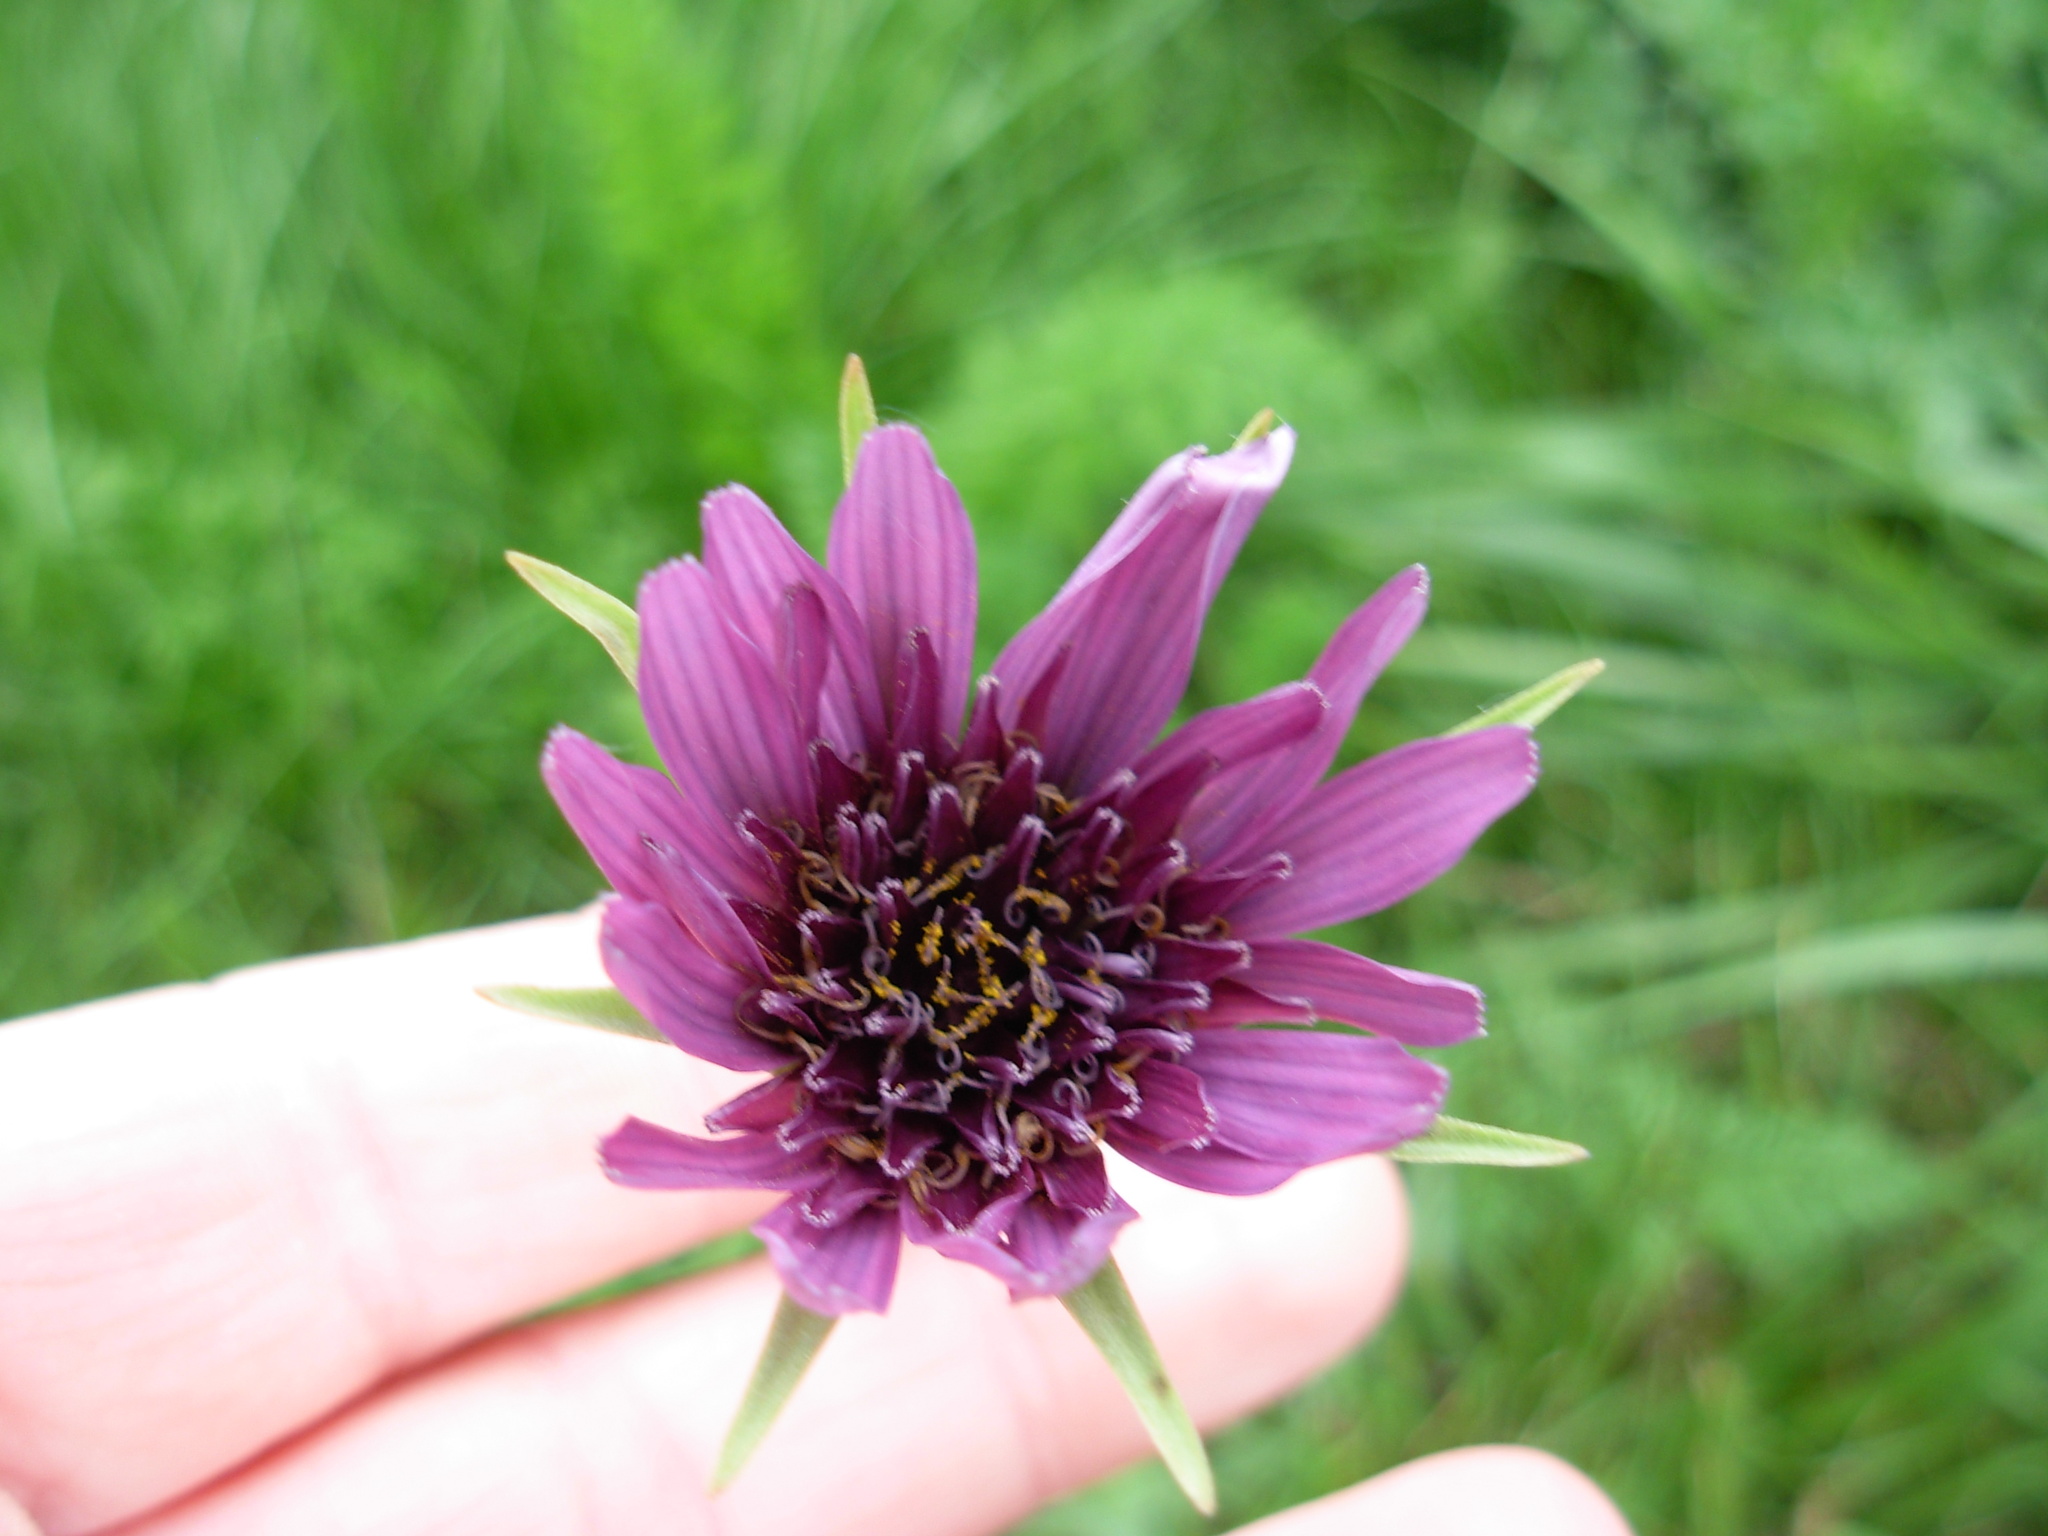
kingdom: Plantae
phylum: Tracheophyta
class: Magnoliopsida
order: Asterales
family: Asteraceae
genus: Tragopogon
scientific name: Tragopogon porrifolius
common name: Salsify
